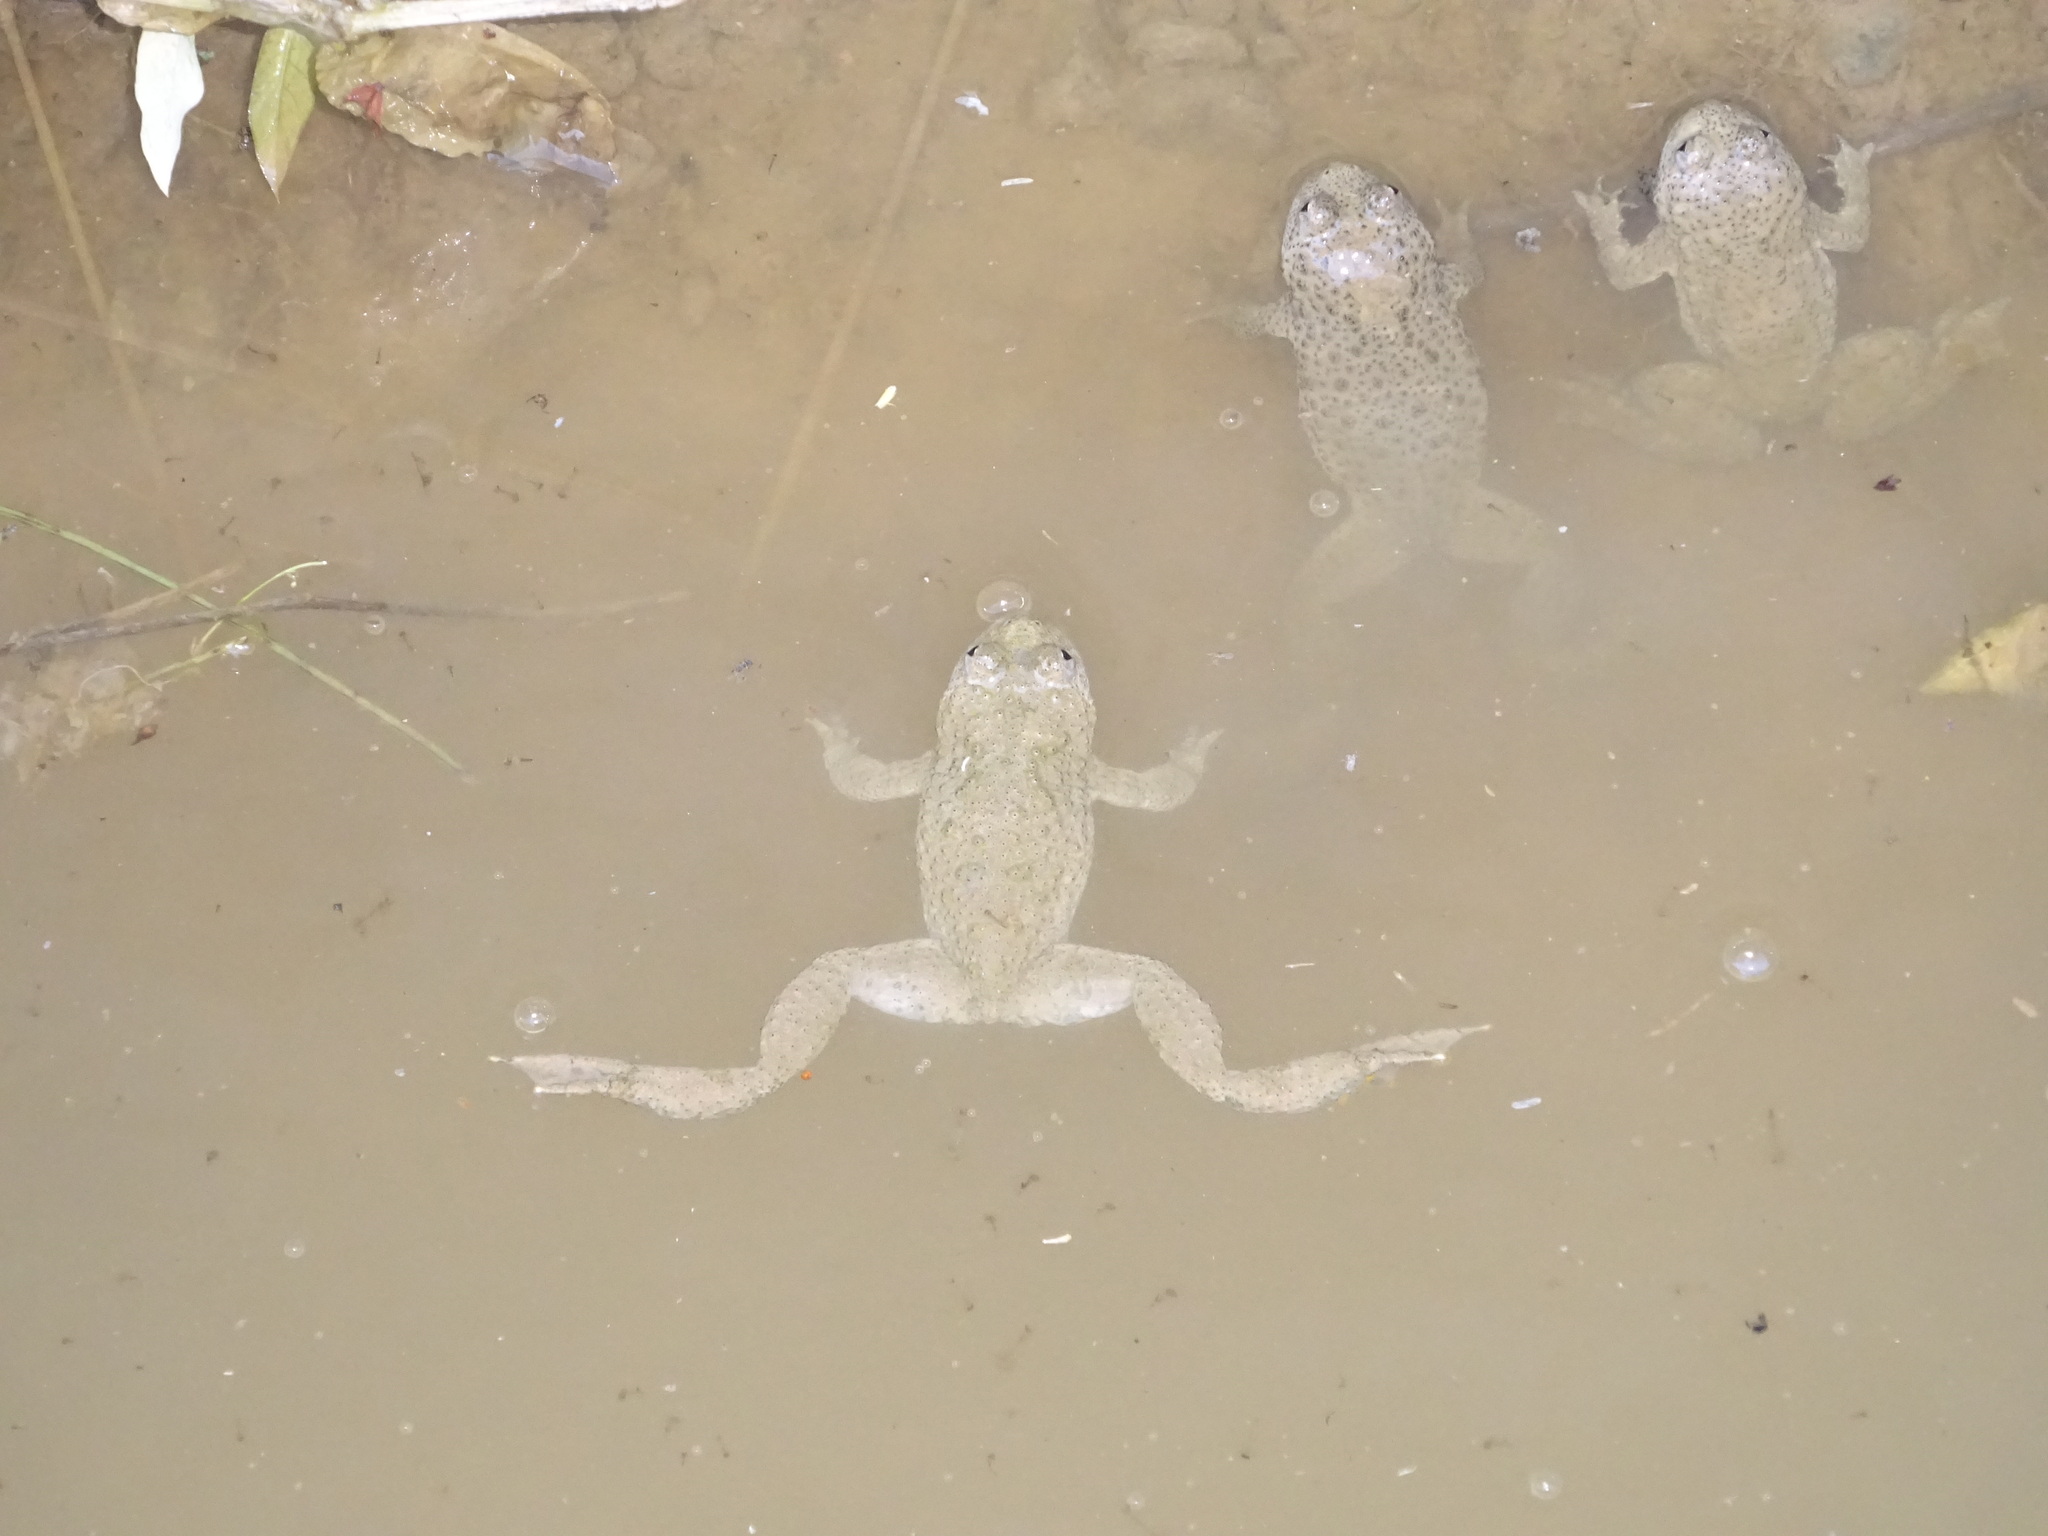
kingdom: Animalia
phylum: Chordata
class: Amphibia
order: Anura
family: Bombinatoridae
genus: Bombina
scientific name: Bombina variegata
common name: Yellow-bellied toad
